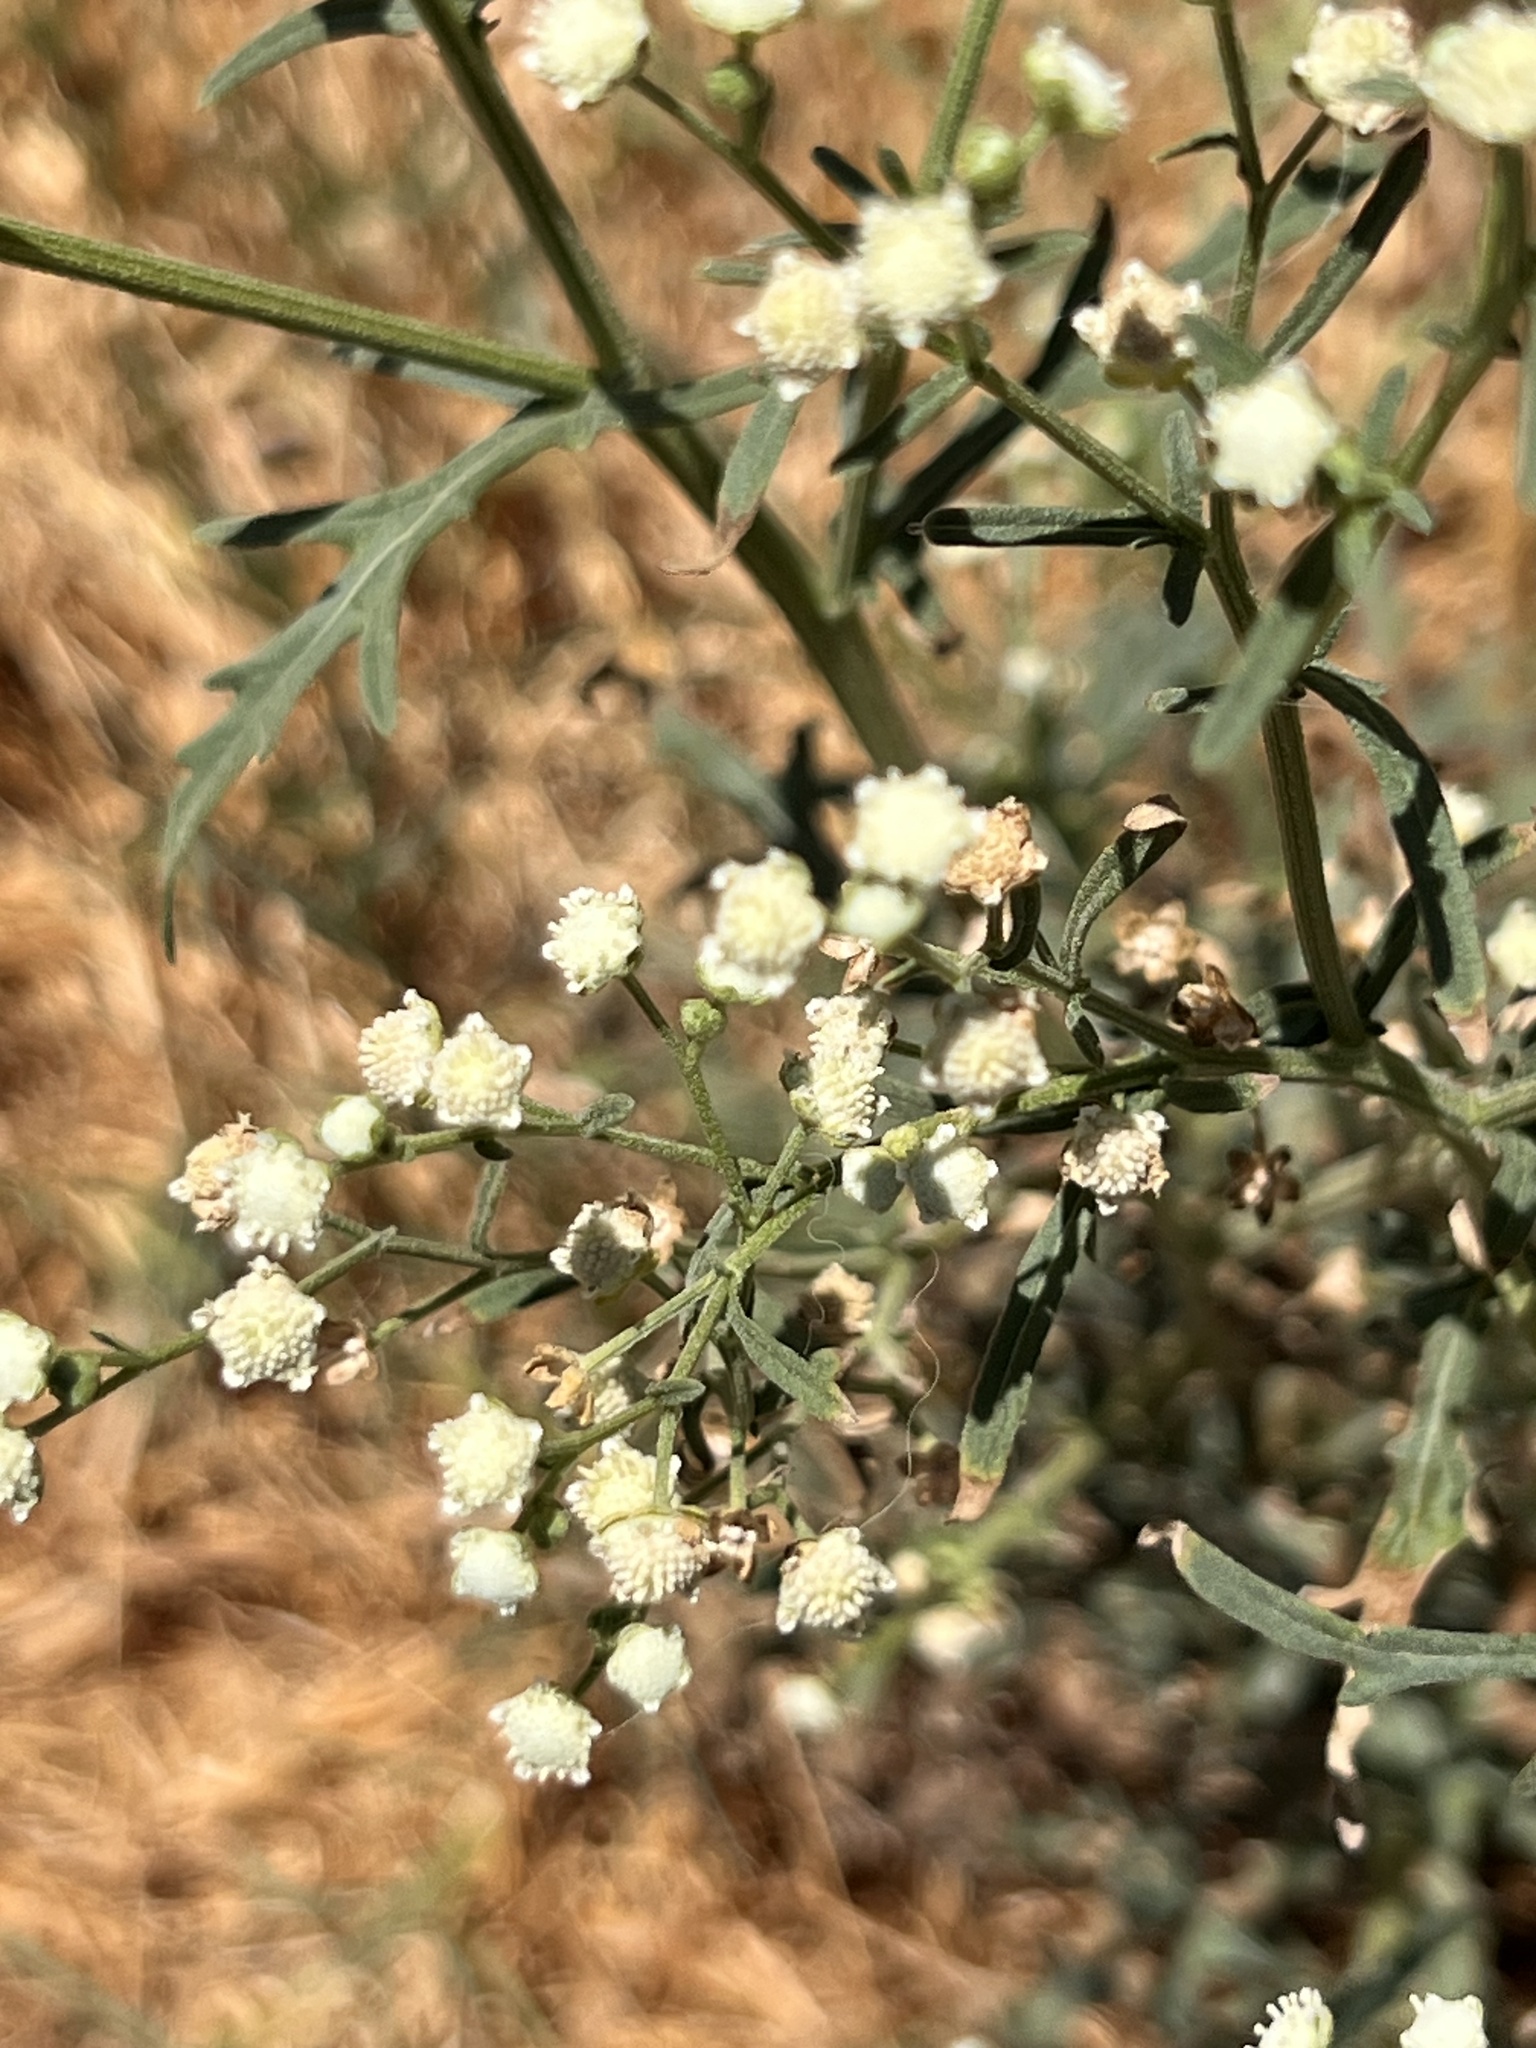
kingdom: Plantae
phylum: Tracheophyta
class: Magnoliopsida
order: Asterales
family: Asteraceae
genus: Parthenium
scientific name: Parthenium hysterophorus
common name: Santa maria feverfew
